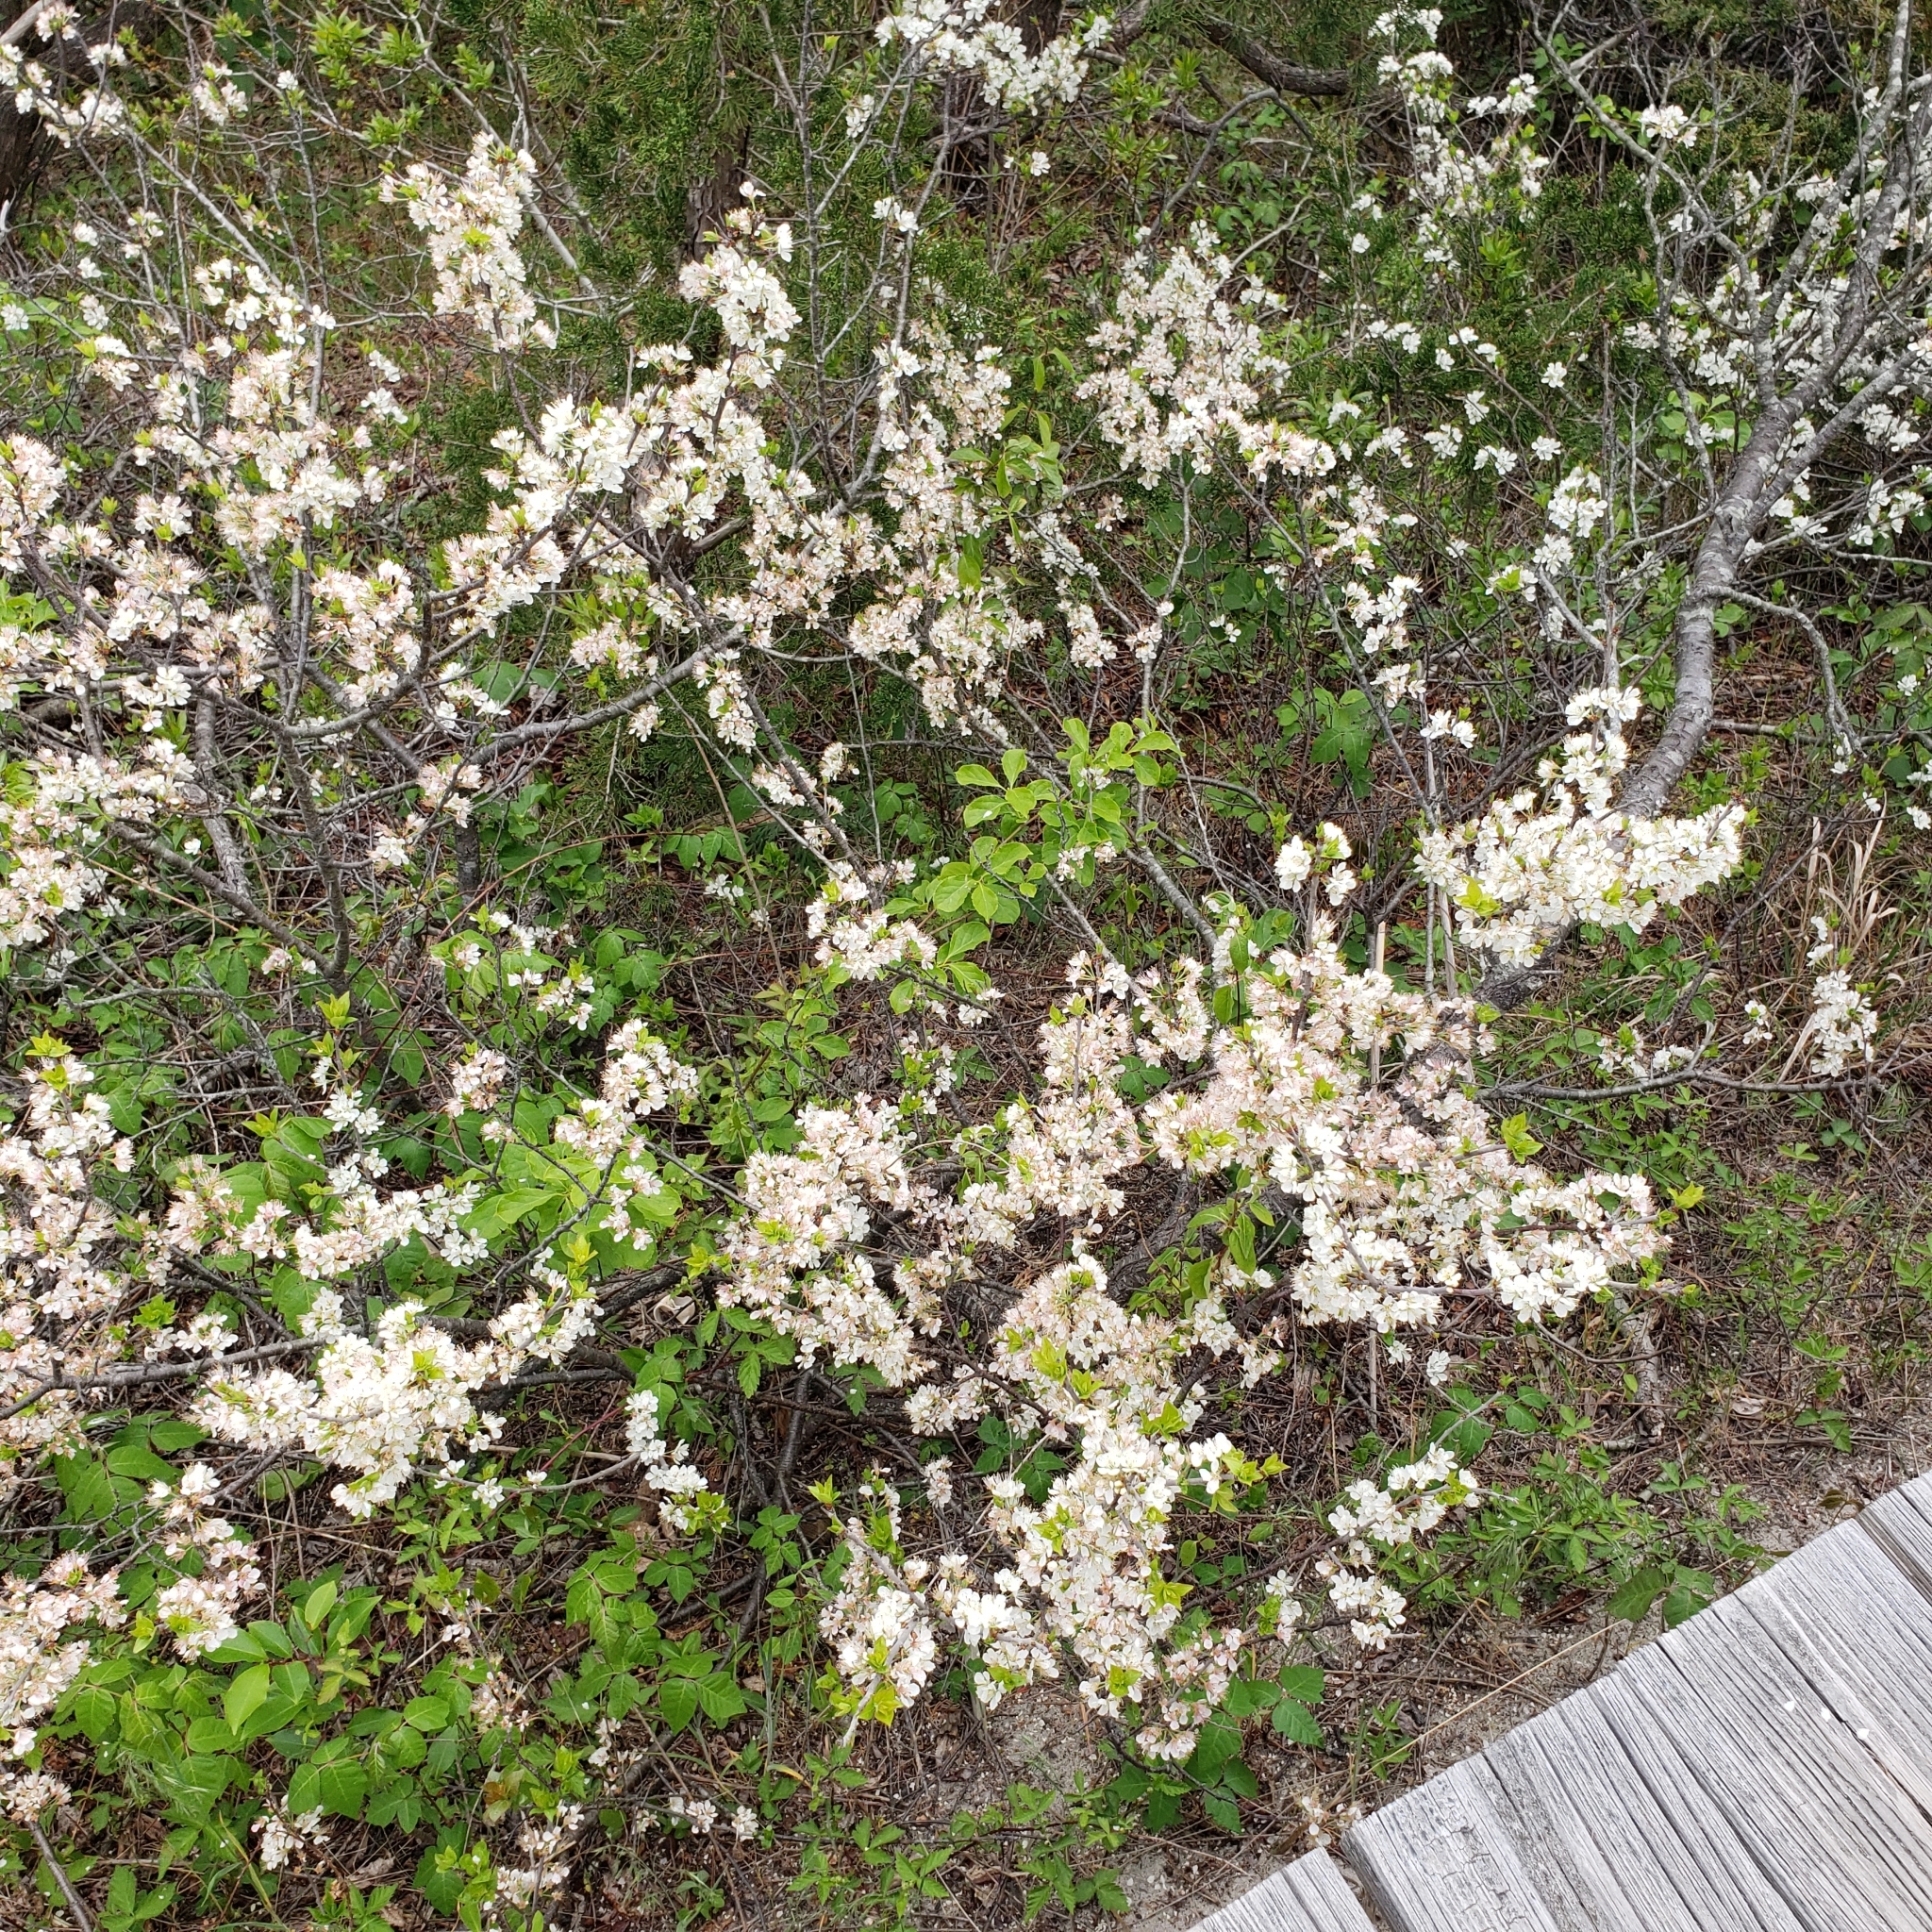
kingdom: Plantae
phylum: Tracheophyta
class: Magnoliopsida
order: Rosales
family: Rosaceae
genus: Prunus
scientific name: Prunus maritima
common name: Beach plum
